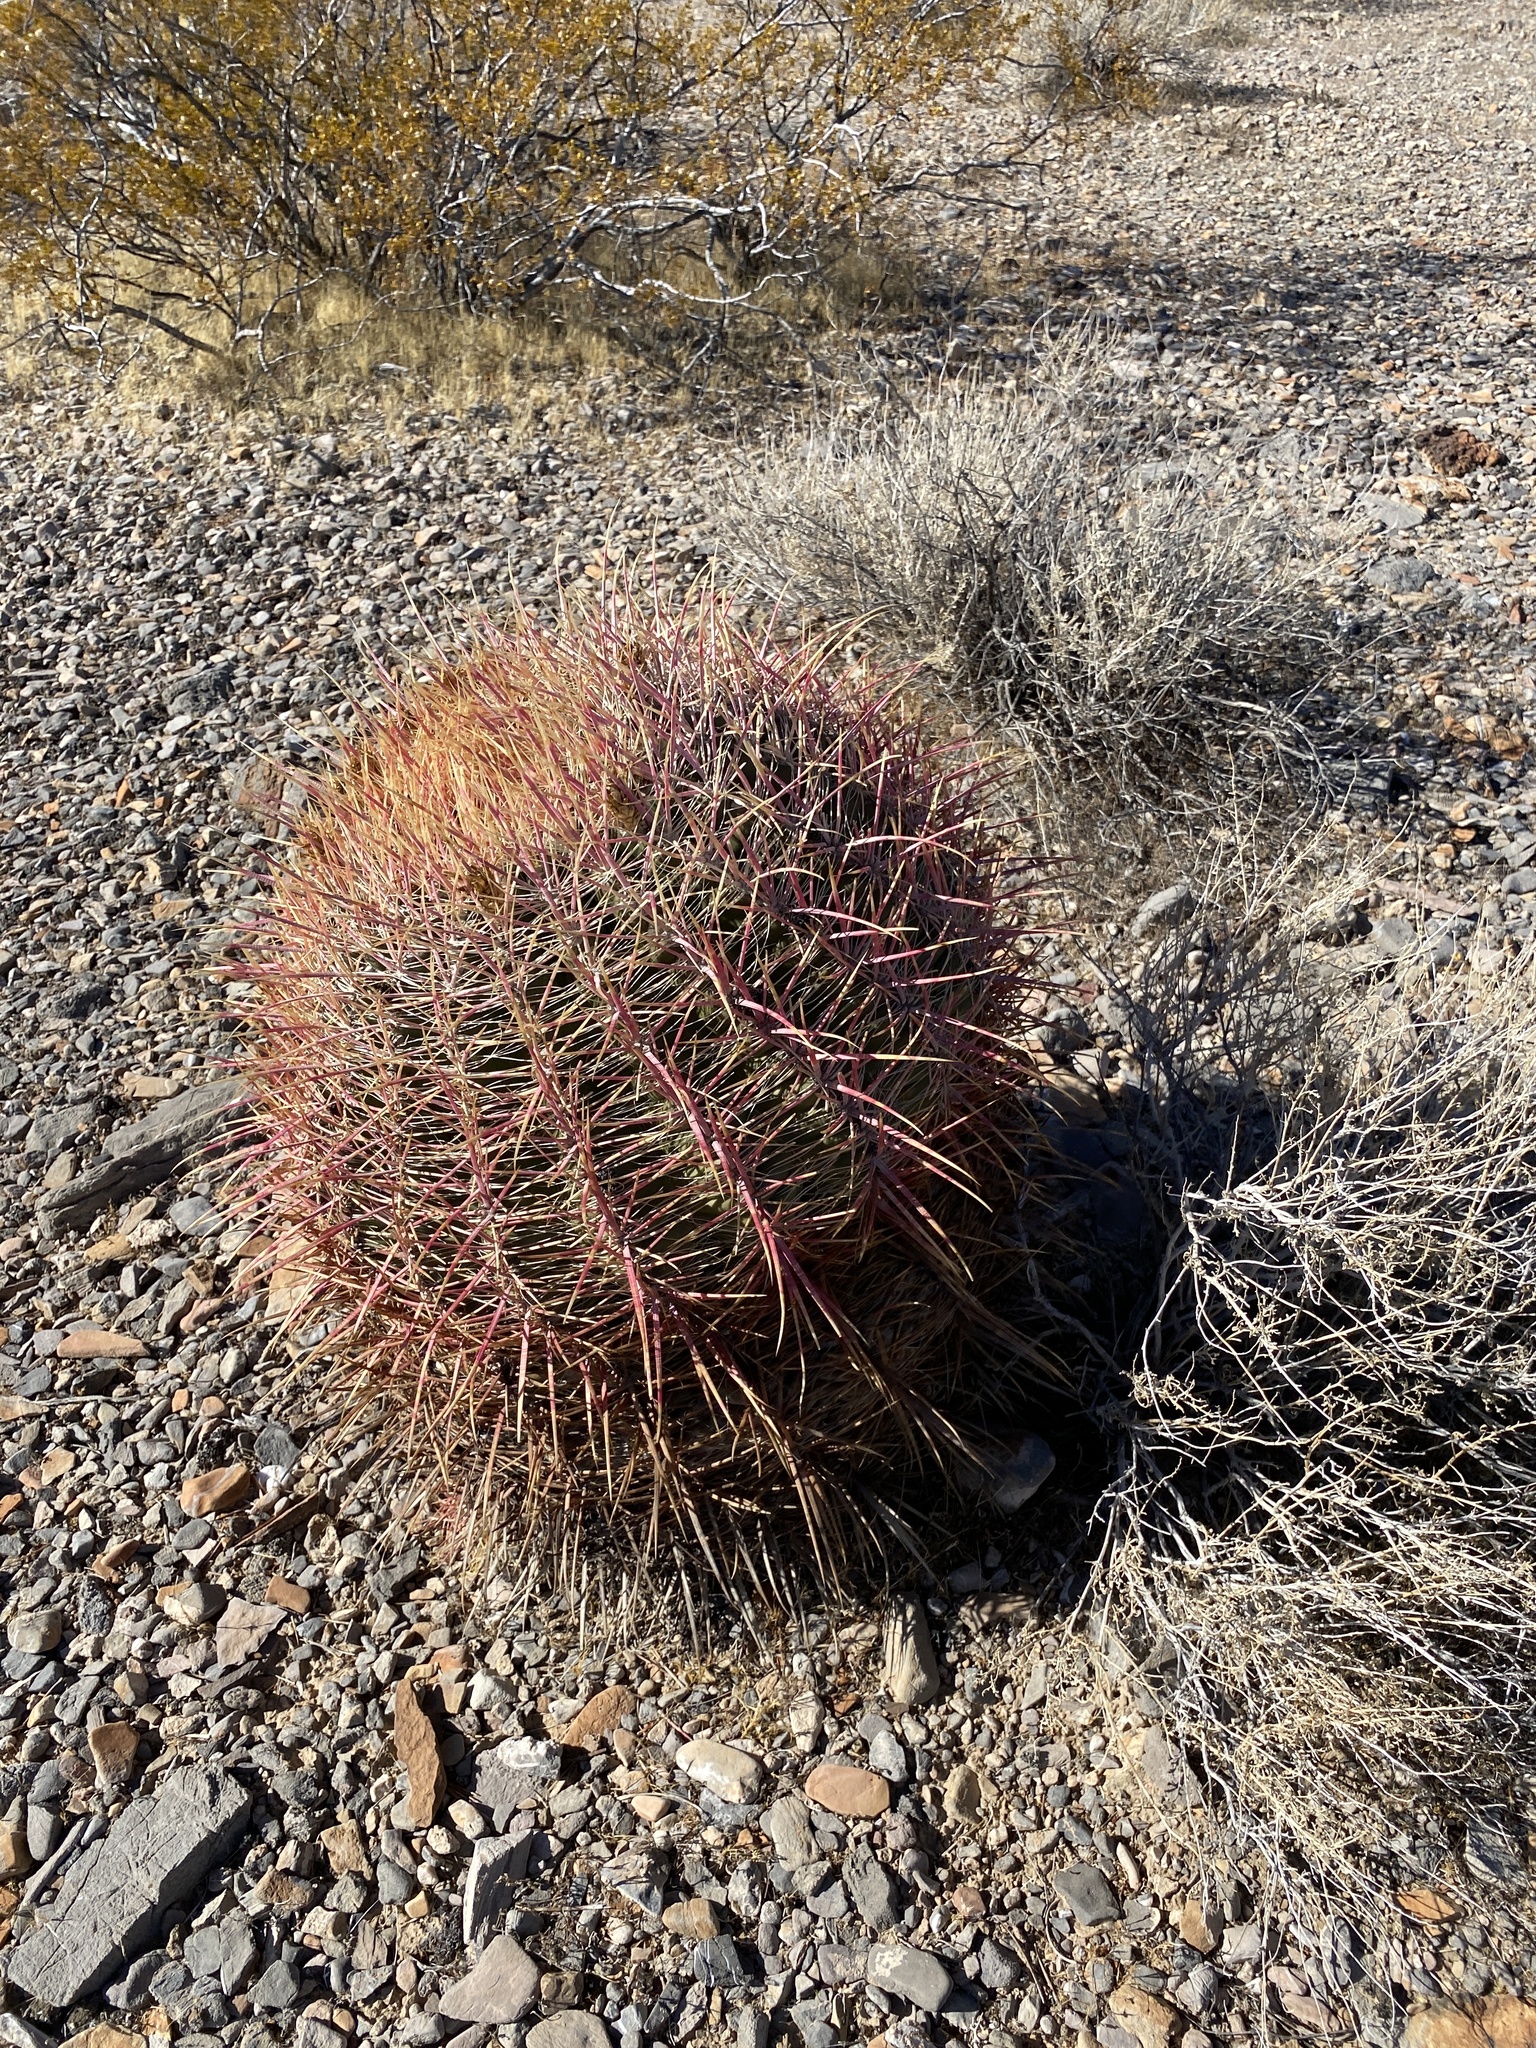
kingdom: Plantae
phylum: Tracheophyta
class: Magnoliopsida
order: Caryophyllales
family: Cactaceae
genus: Ferocactus
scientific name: Ferocactus cylindraceus
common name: California barrel cactus
